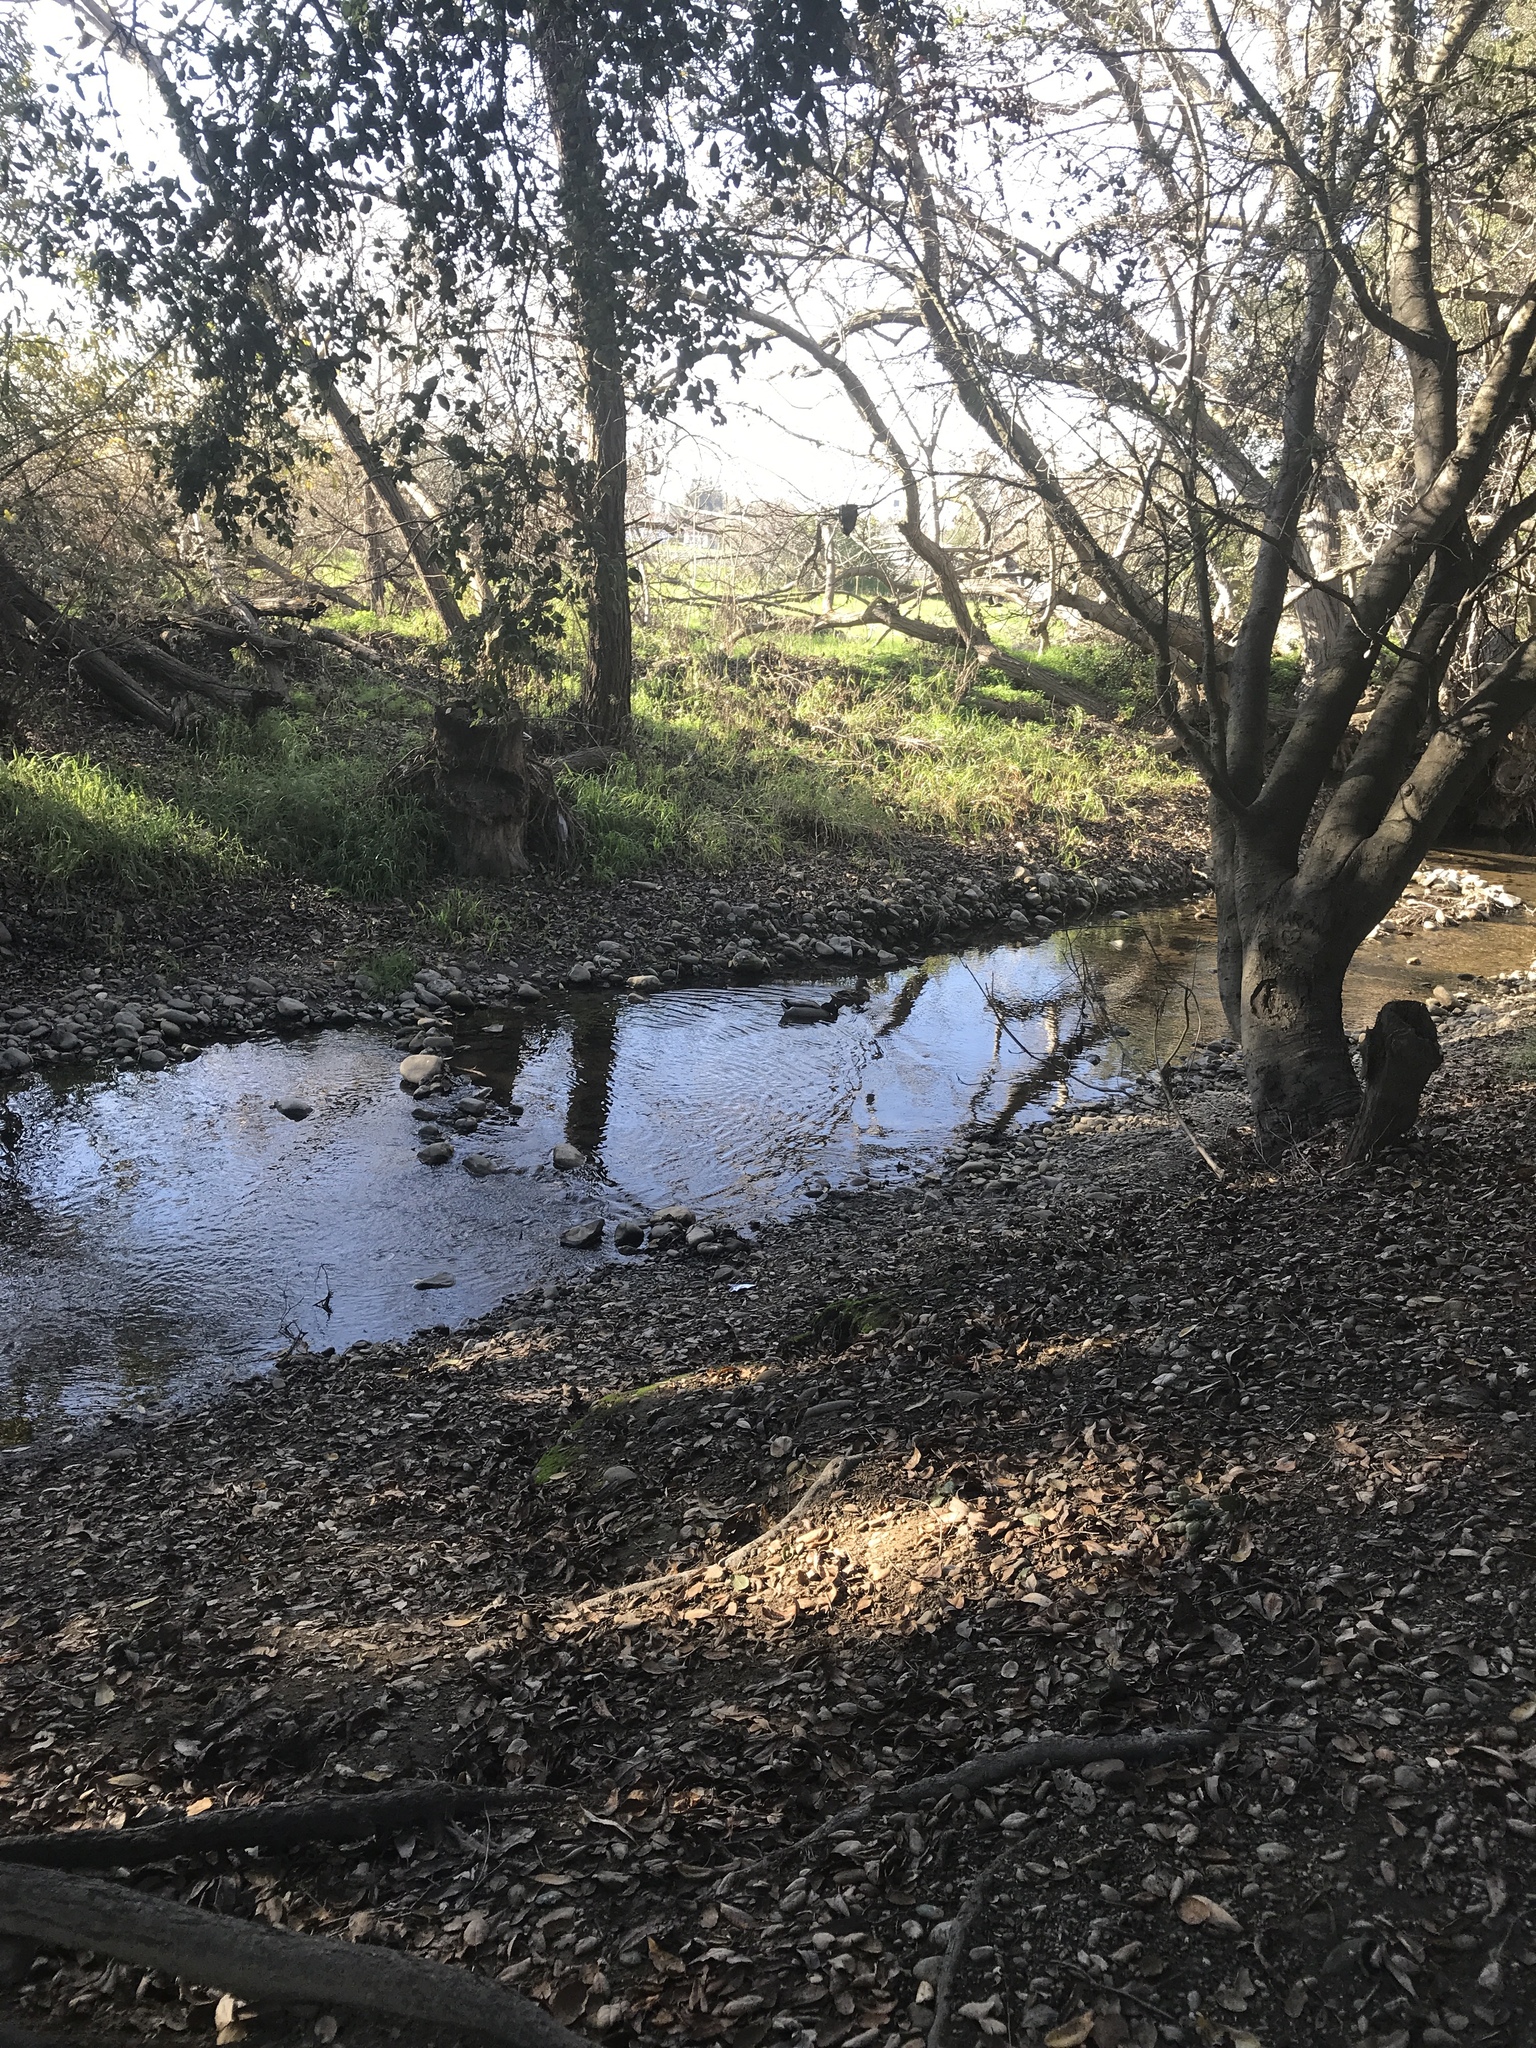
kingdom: Animalia
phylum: Chordata
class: Aves
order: Anseriformes
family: Anatidae
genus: Anas
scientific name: Anas platyrhynchos
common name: Mallard
